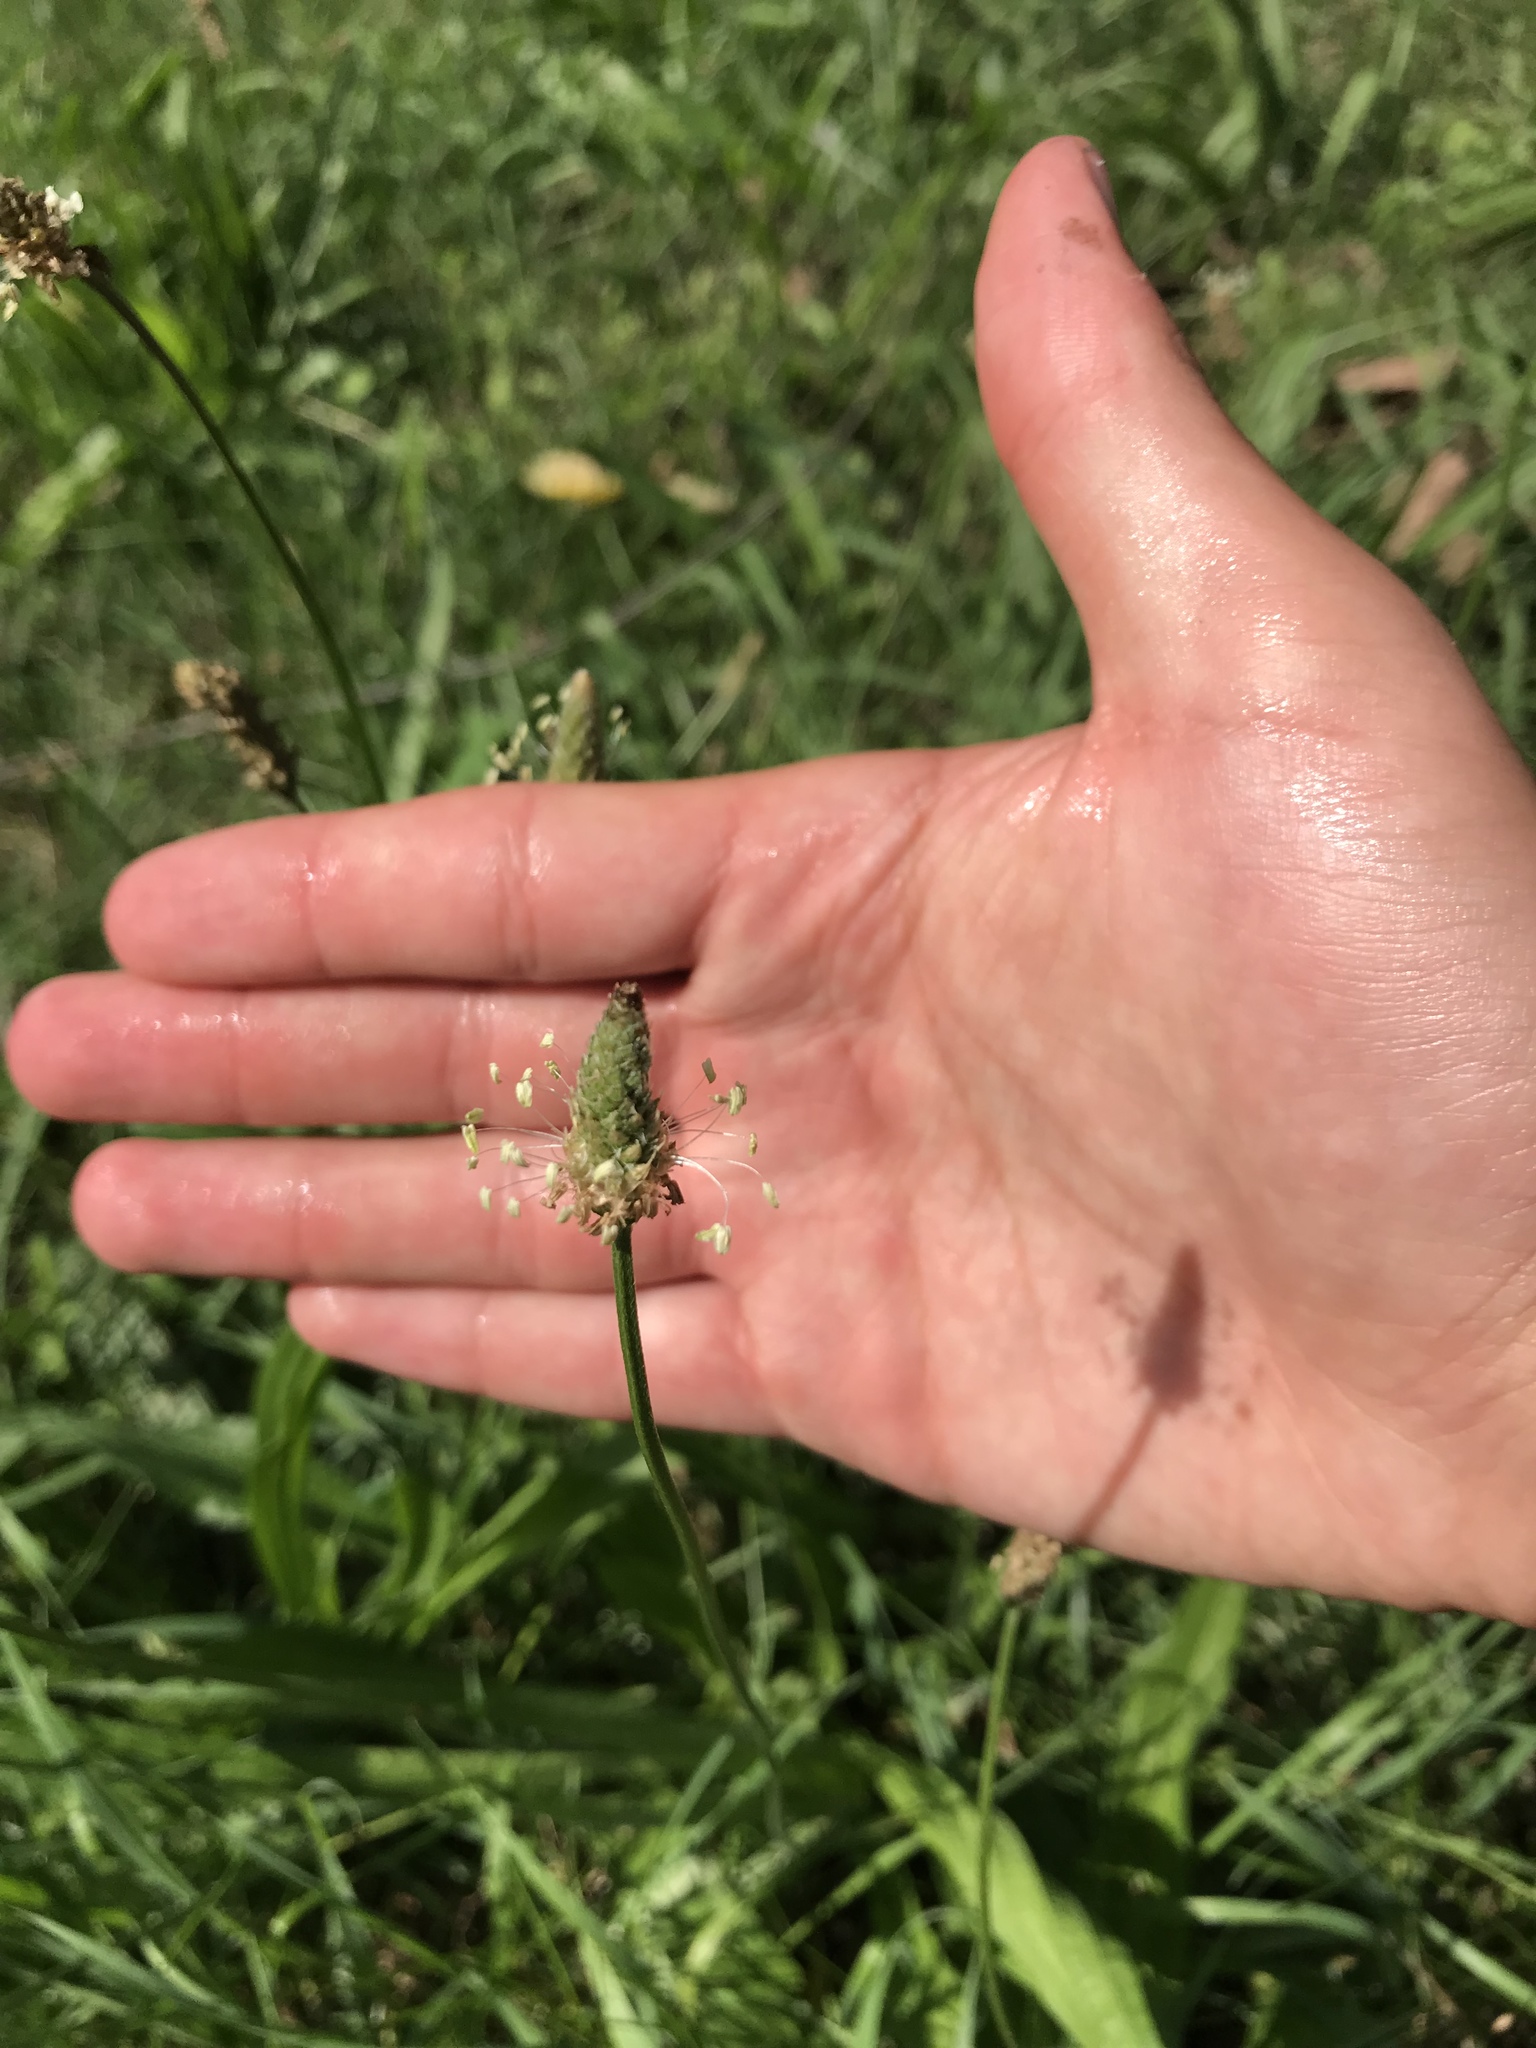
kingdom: Plantae
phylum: Tracheophyta
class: Magnoliopsida
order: Lamiales
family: Plantaginaceae
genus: Plantago
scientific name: Plantago lanceolata
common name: Ribwort plantain
